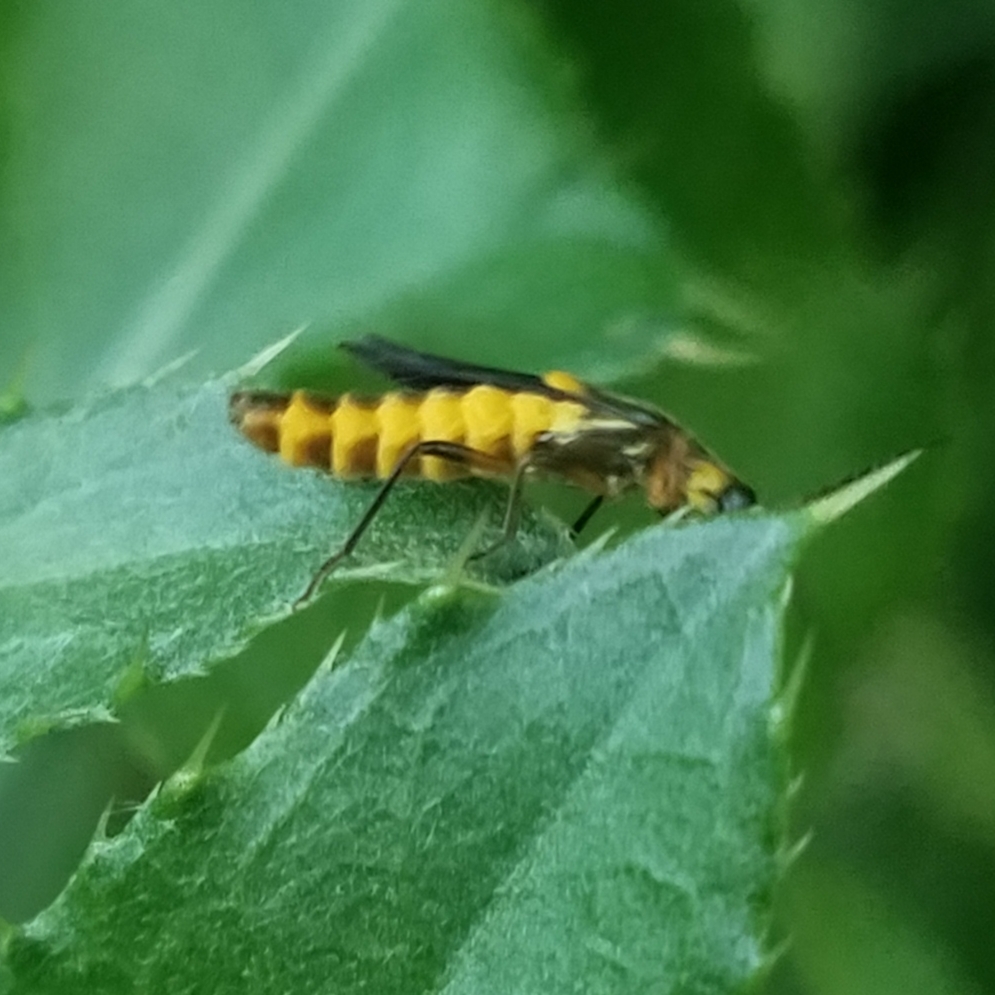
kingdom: Animalia
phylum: Arthropoda
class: Insecta
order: Coleoptera
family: Cantharidae
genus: Trypherus
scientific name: Trypherus
